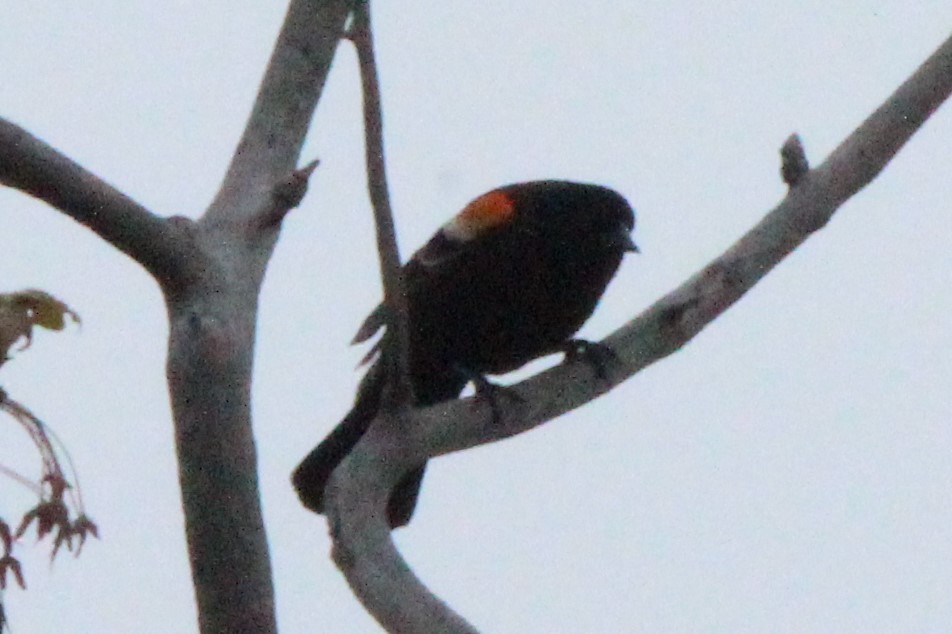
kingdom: Animalia
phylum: Chordata
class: Aves
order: Passeriformes
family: Icteridae
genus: Agelaius
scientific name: Agelaius phoeniceus
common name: Red-winged blackbird
